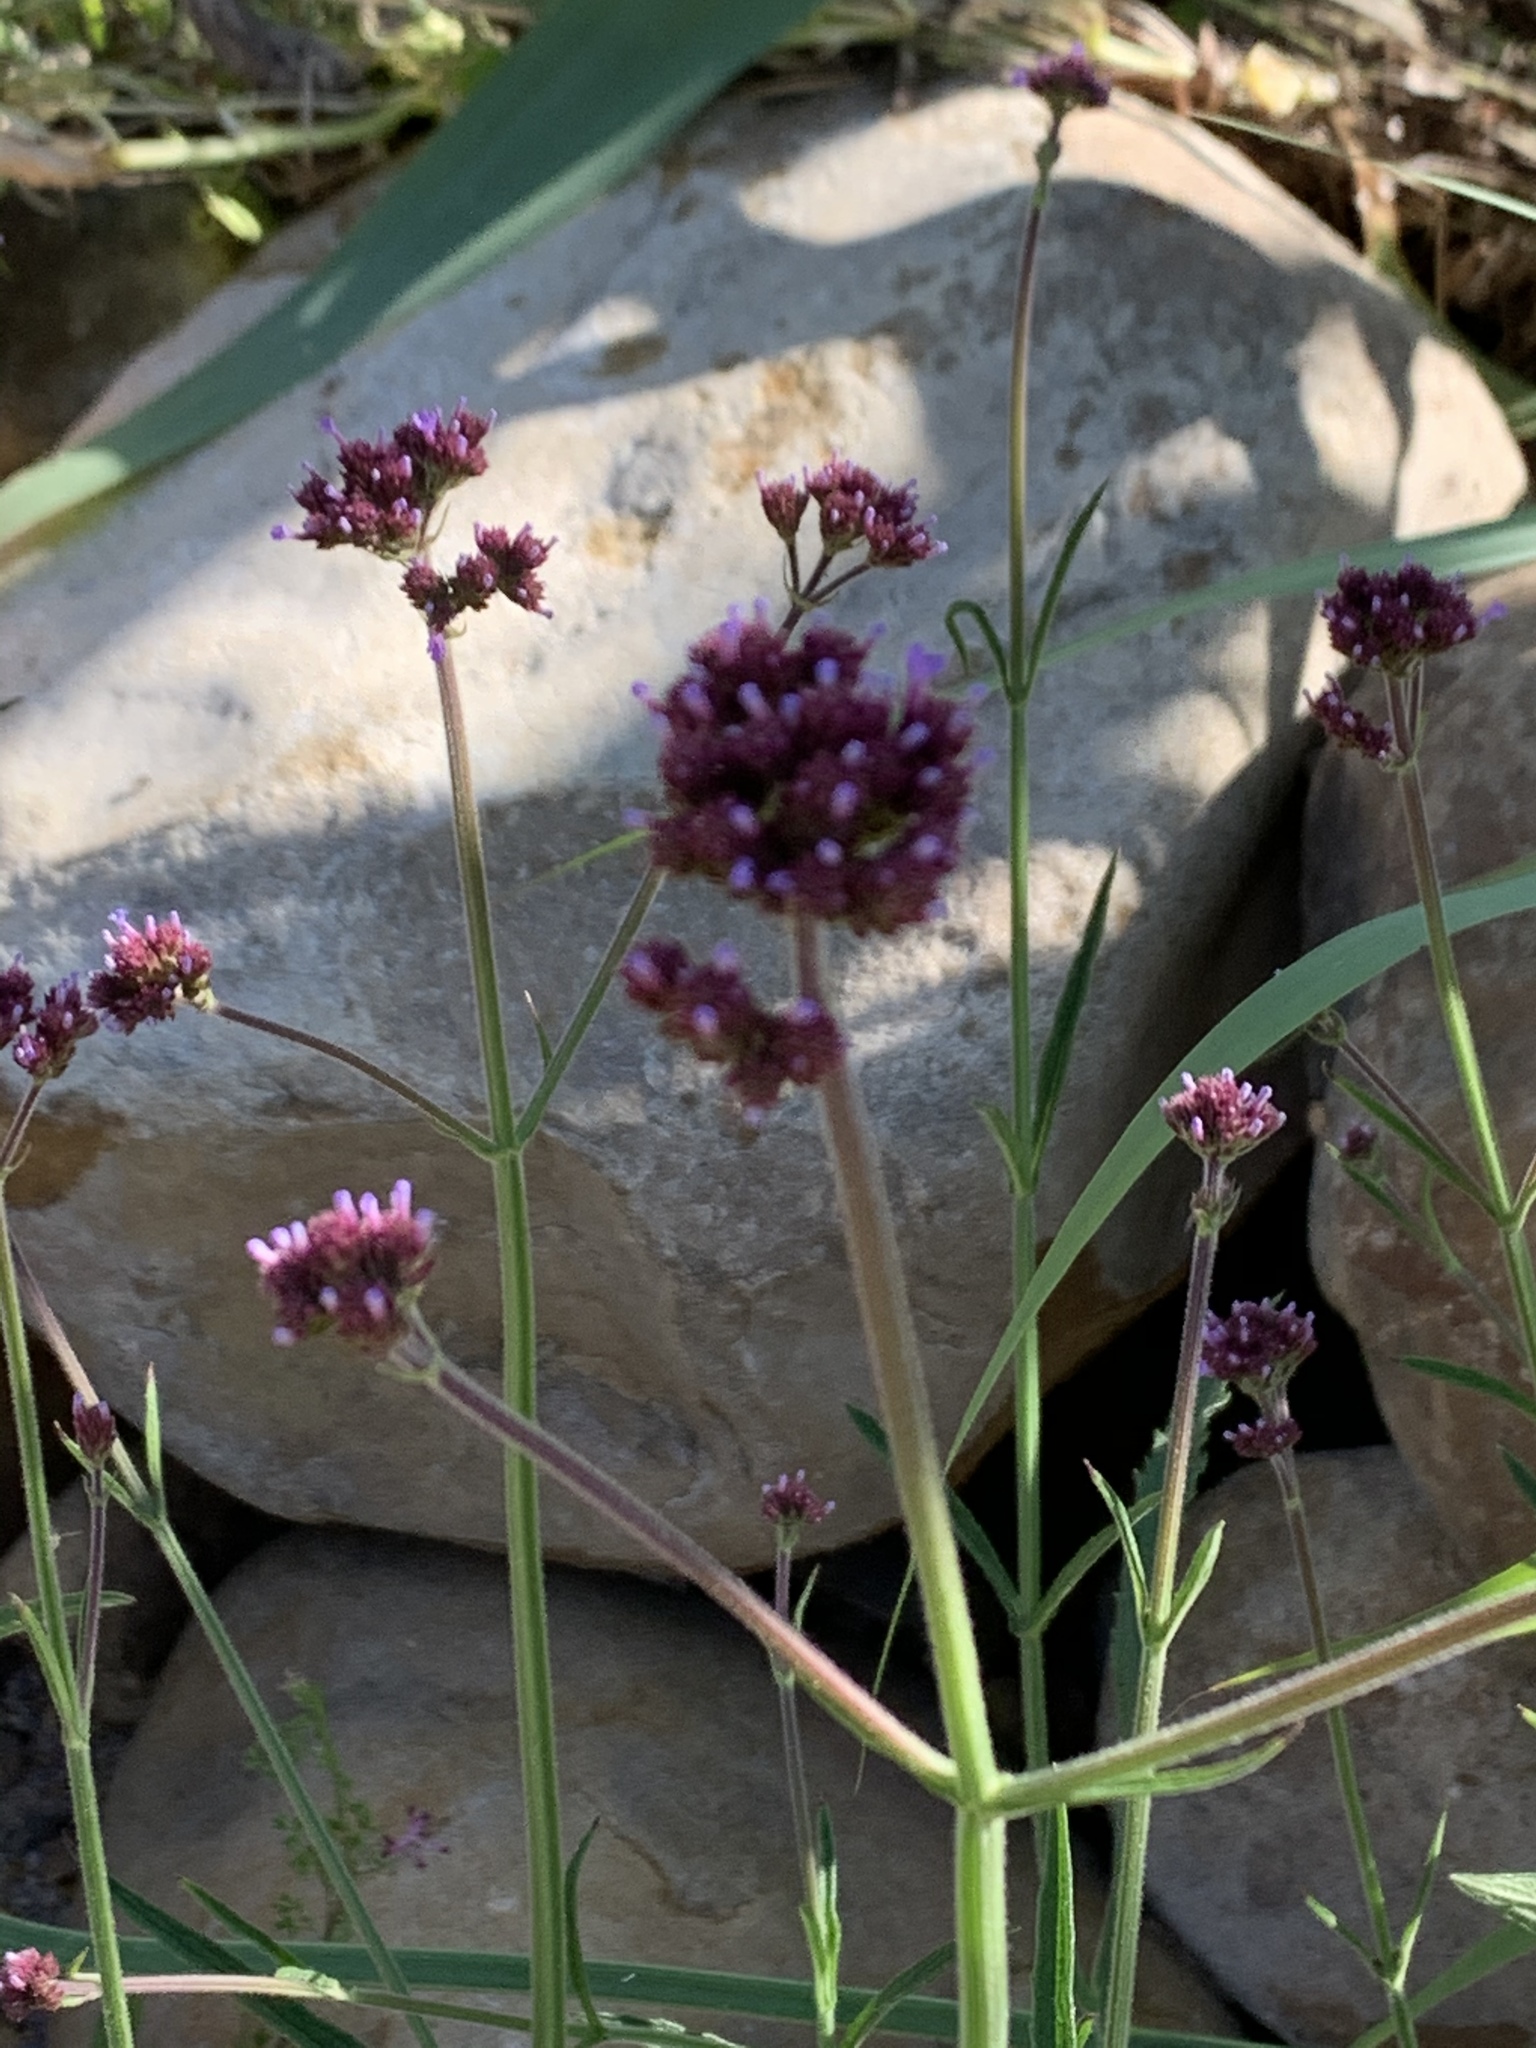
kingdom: Plantae
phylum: Tracheophyta
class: Magnoliopsida
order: Lamiales
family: Verbenaceae
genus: Verbena
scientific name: Verbena bonariensis
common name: Purpletop vervain
